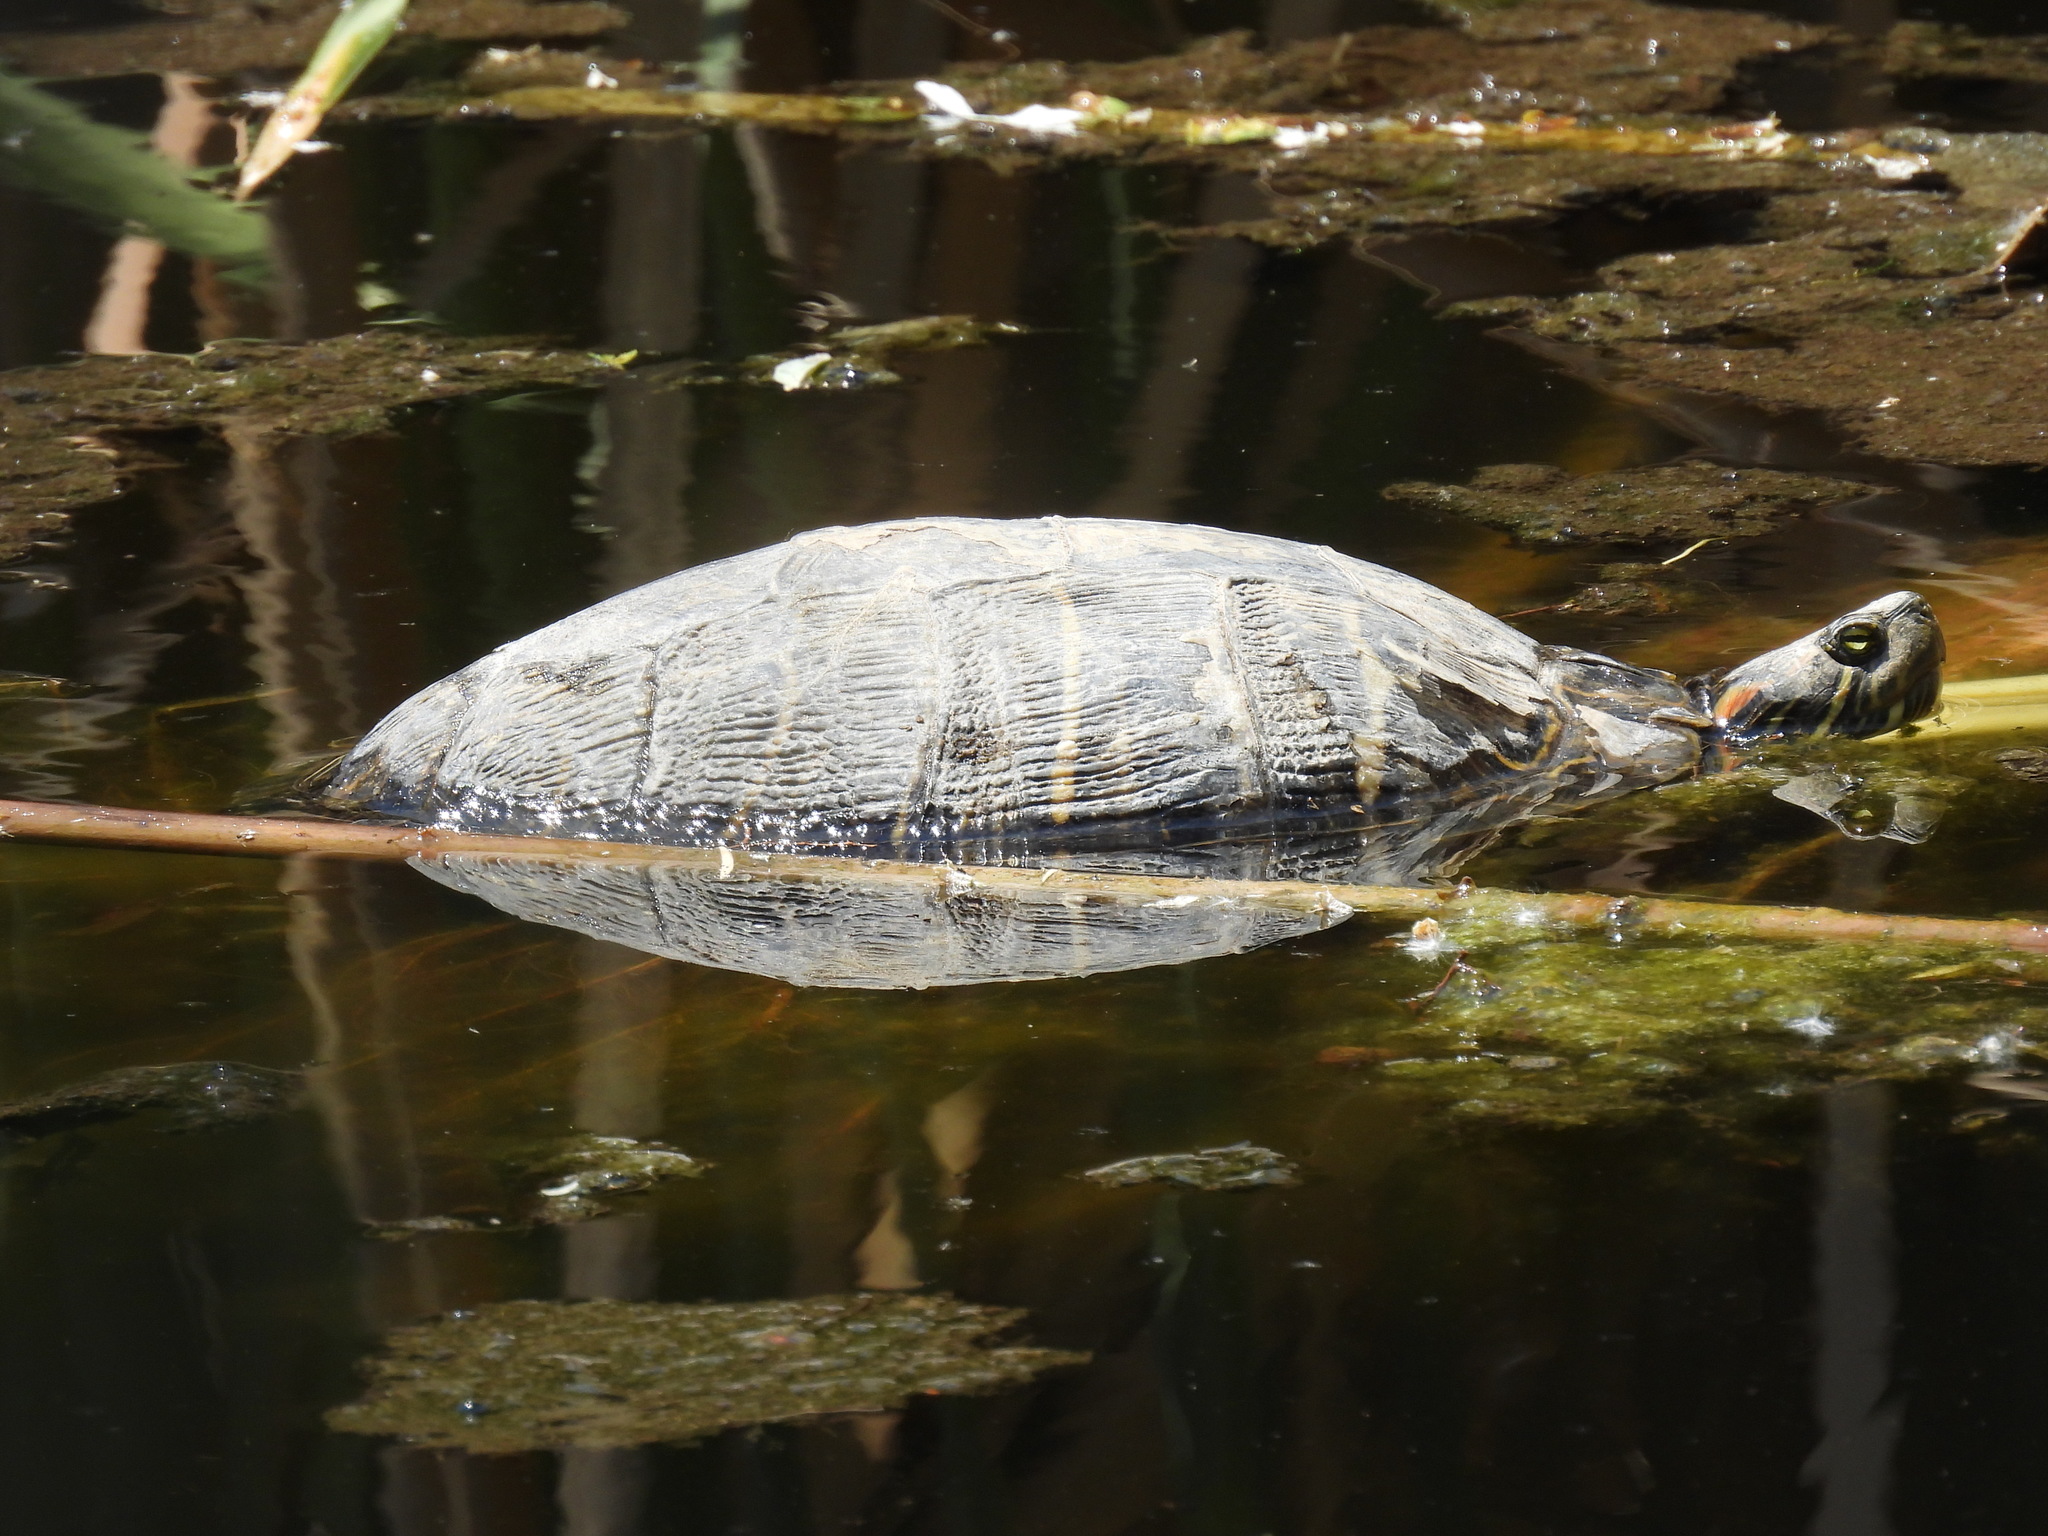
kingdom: Animalia
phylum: Chordata
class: Testudines
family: Emydidae
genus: Trachemys
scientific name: Trachemys scripta
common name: Slider
